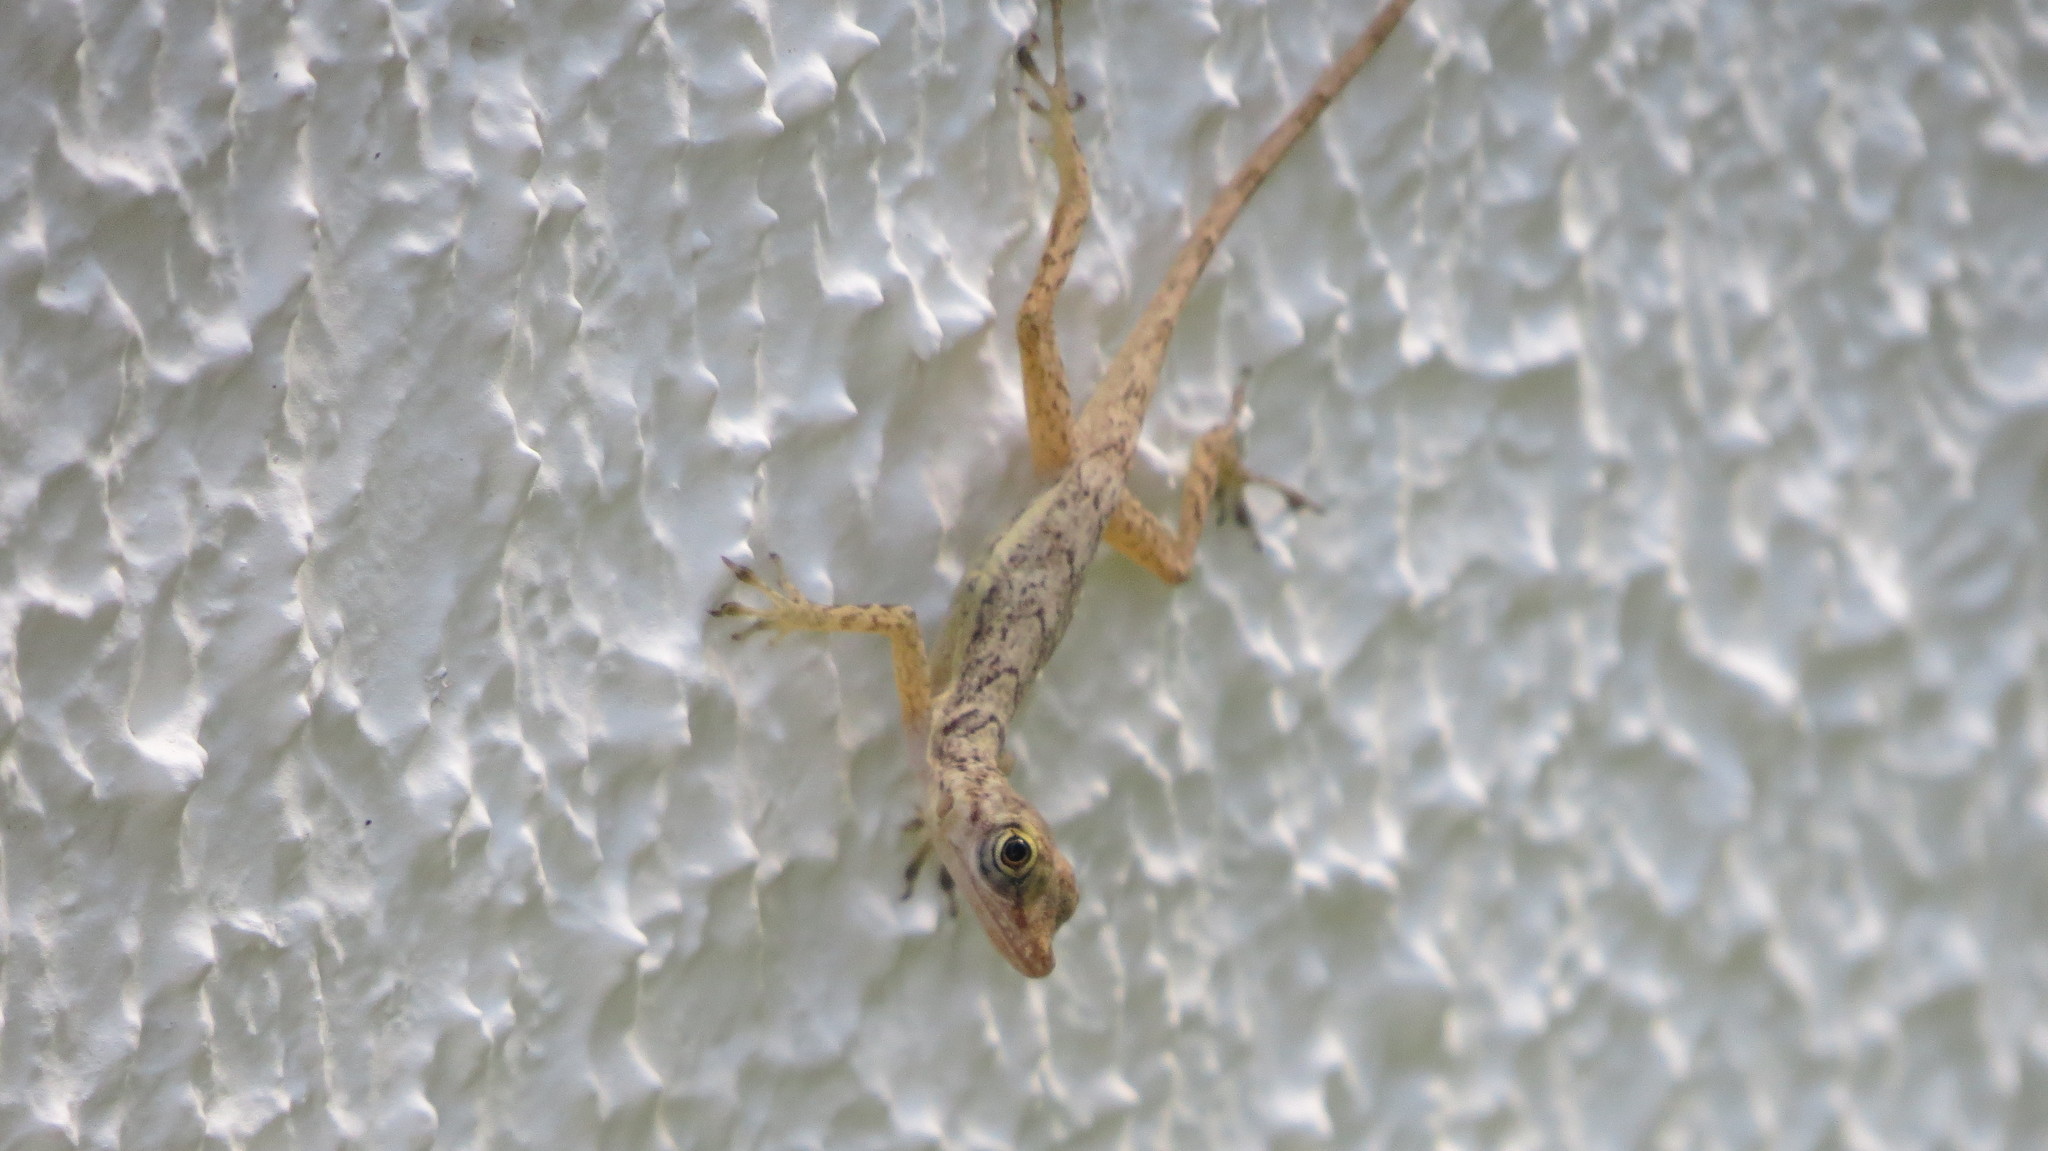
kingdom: Animalia
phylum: Chordata
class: Squamata
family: Dactyloidae
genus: Anolis
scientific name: Anolis concolor
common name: Isla san andres anole
